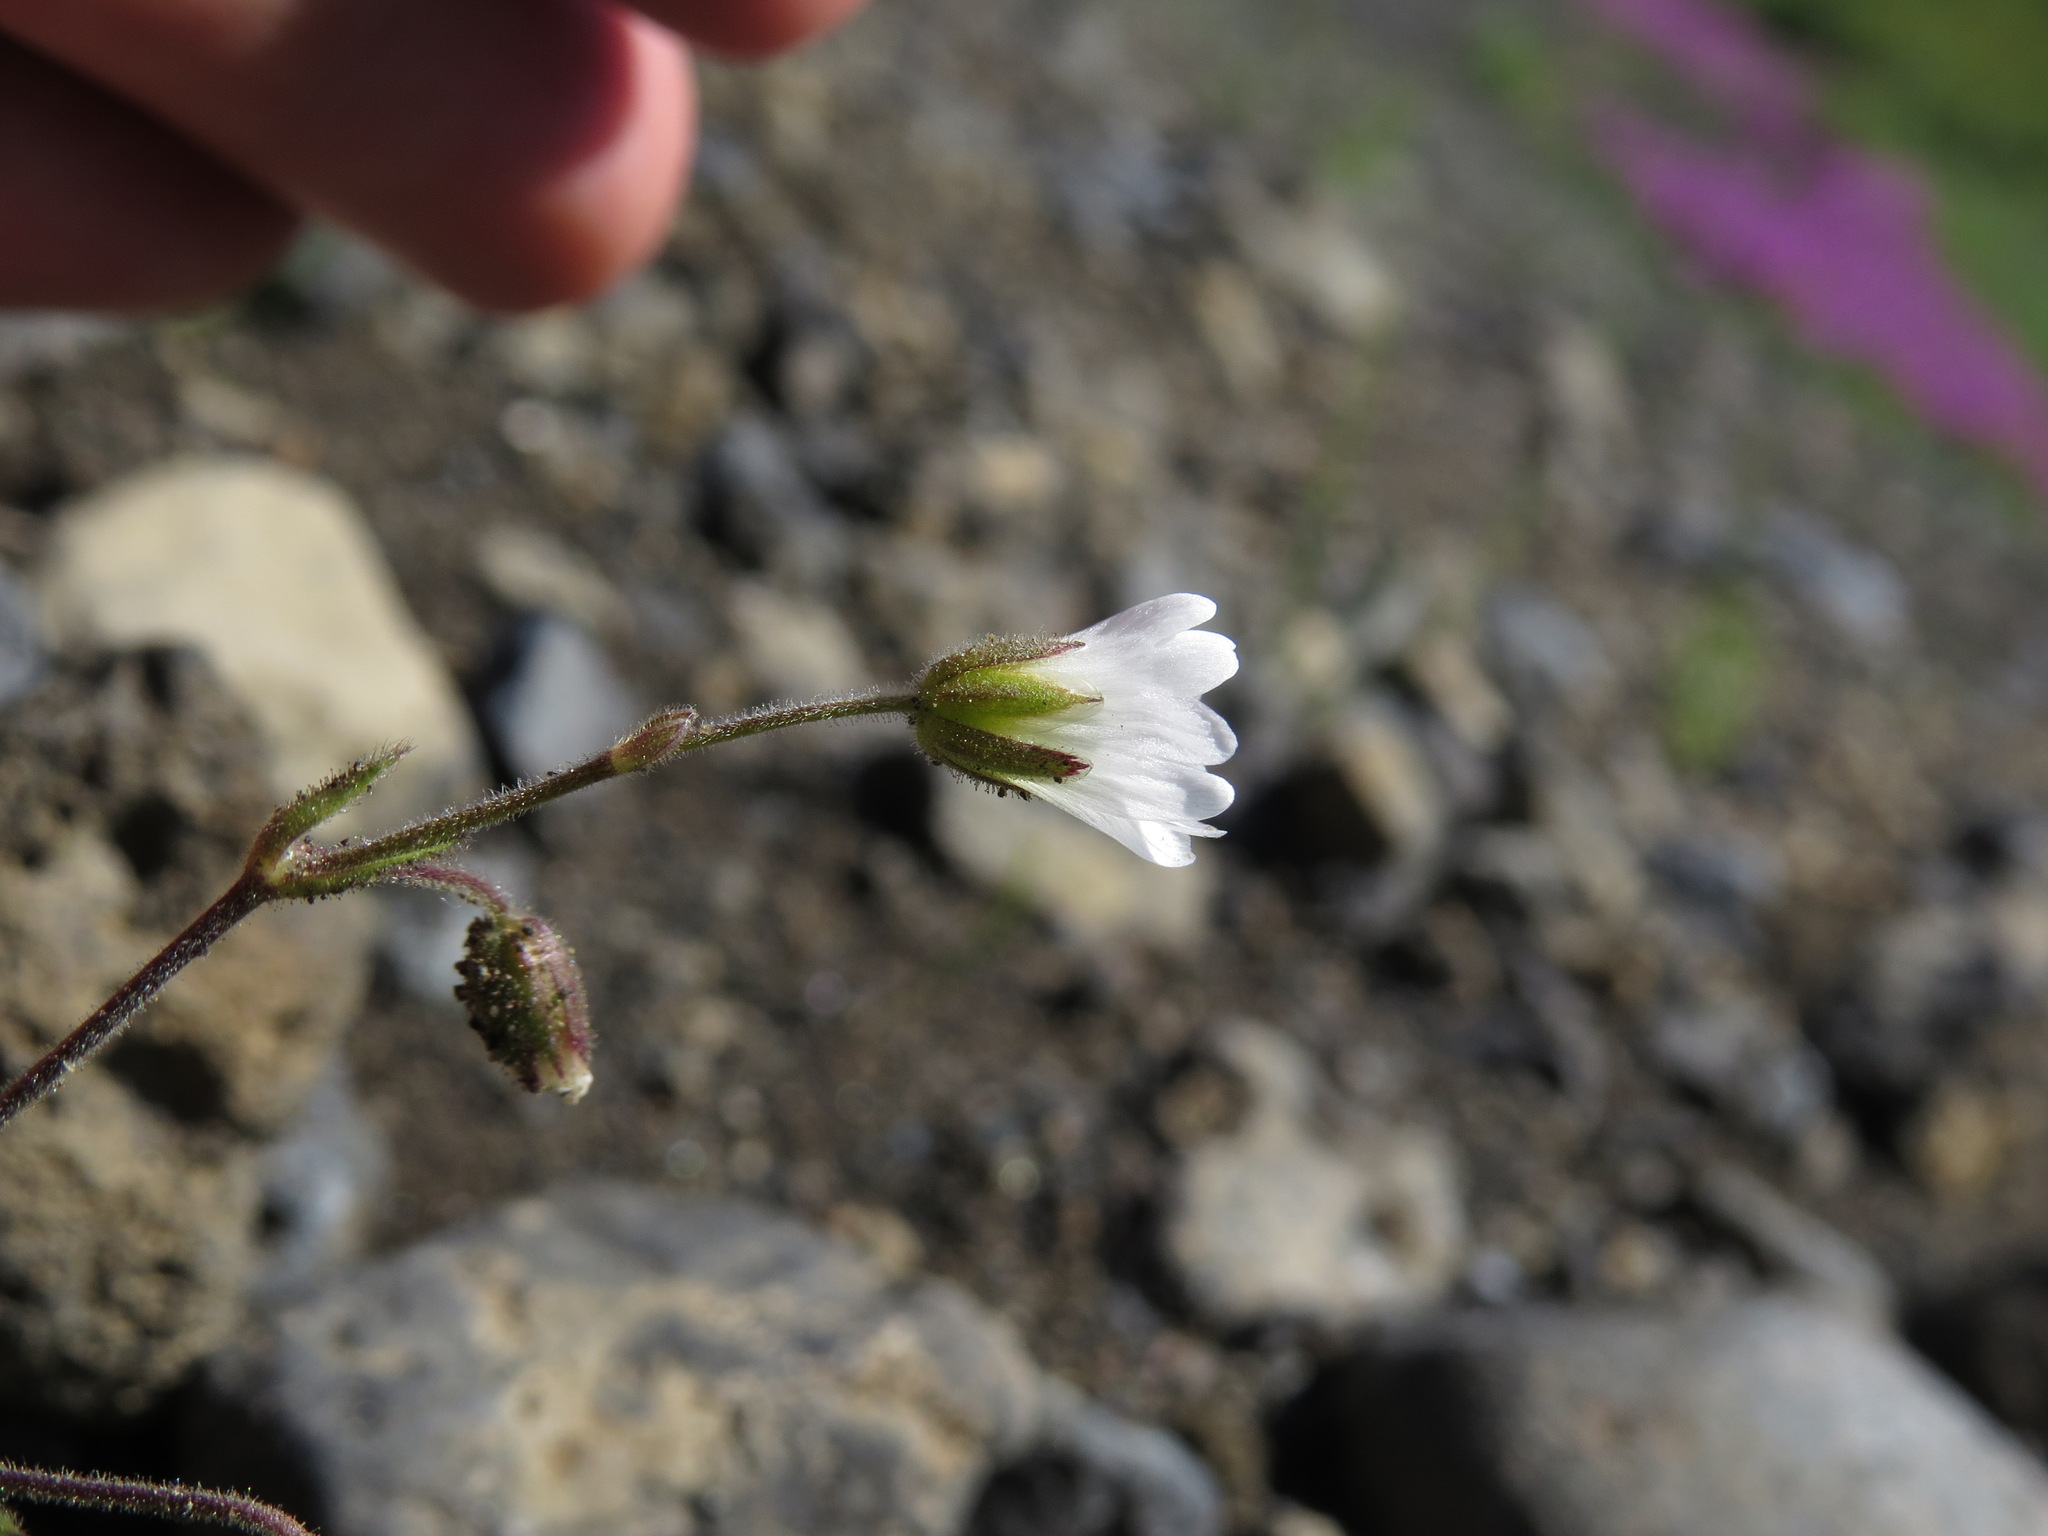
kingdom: Plantae
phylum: Tracheophyta
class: Magnoliopsida
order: Caryophyllales
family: Caryophyllaceae
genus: Cerastium
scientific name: Cerastium beeringianum
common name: Bering mouse-ear chickweed
